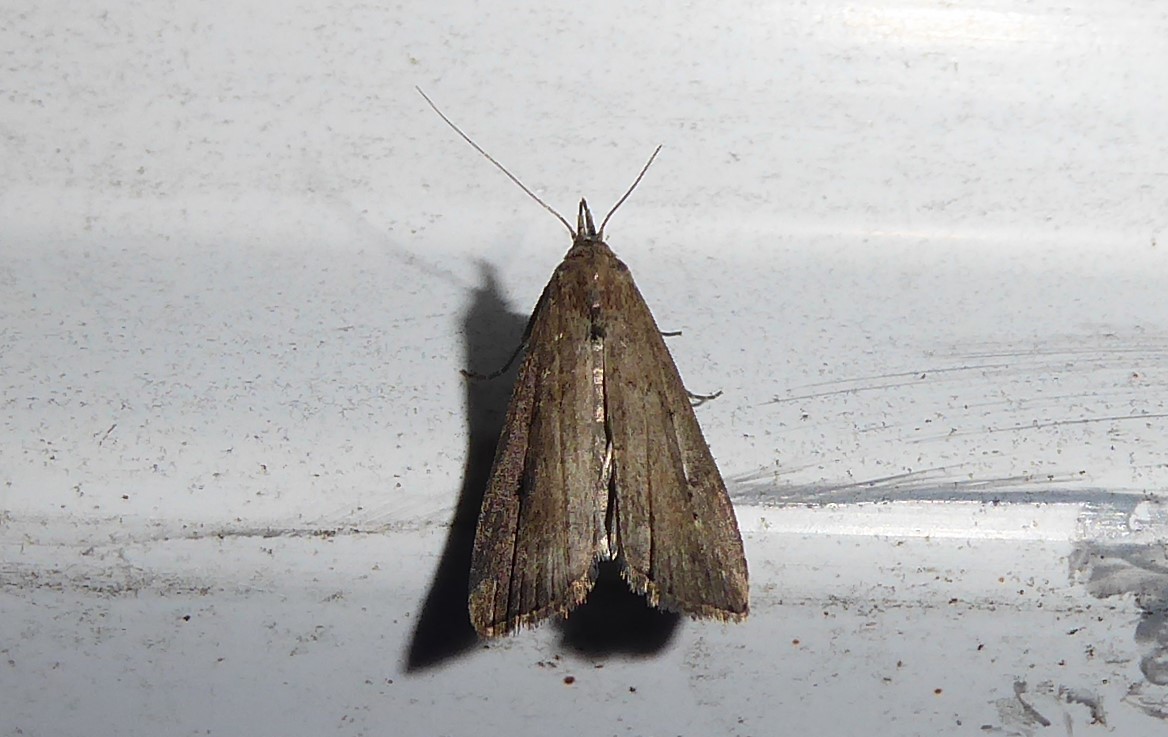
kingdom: Animalia
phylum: Arthropoda
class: Insecta
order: Lepidoptera
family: Erebidae
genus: Schrankia
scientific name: Schrankia costaestrigalis
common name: Pinion-streaked snout
